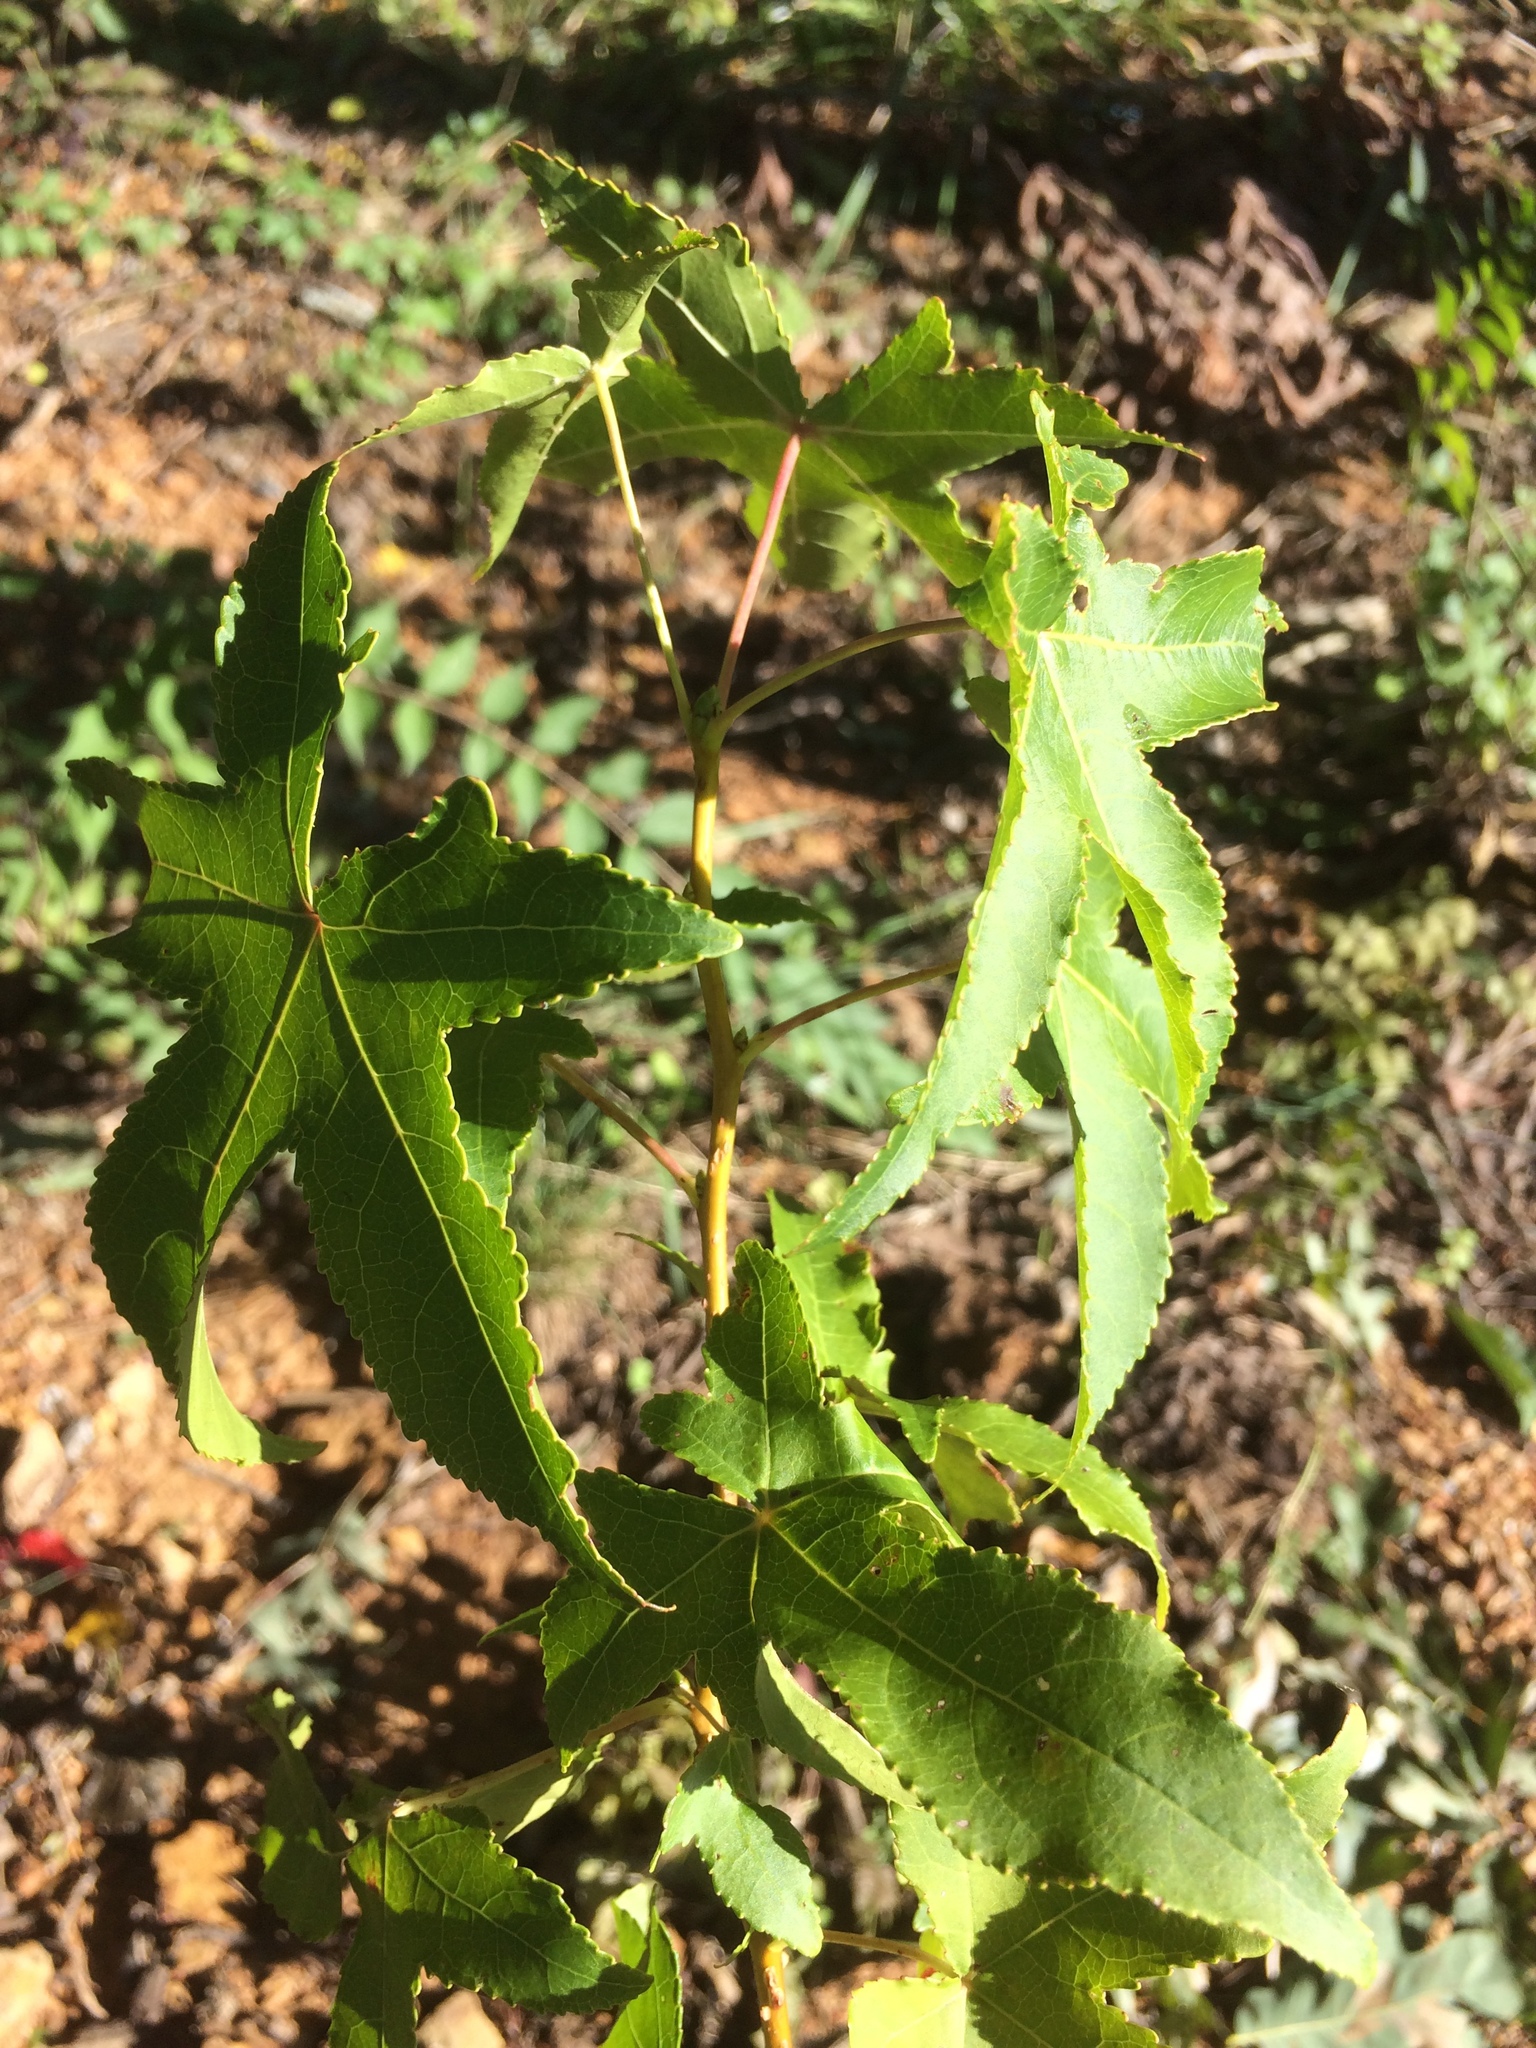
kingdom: Plantae
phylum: Tracheophyta
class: Magnoliopsida
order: Saxifragales
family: Altingiaceae
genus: Liquidambar
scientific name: Liquidambar styraciflua
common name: Sweet gum
